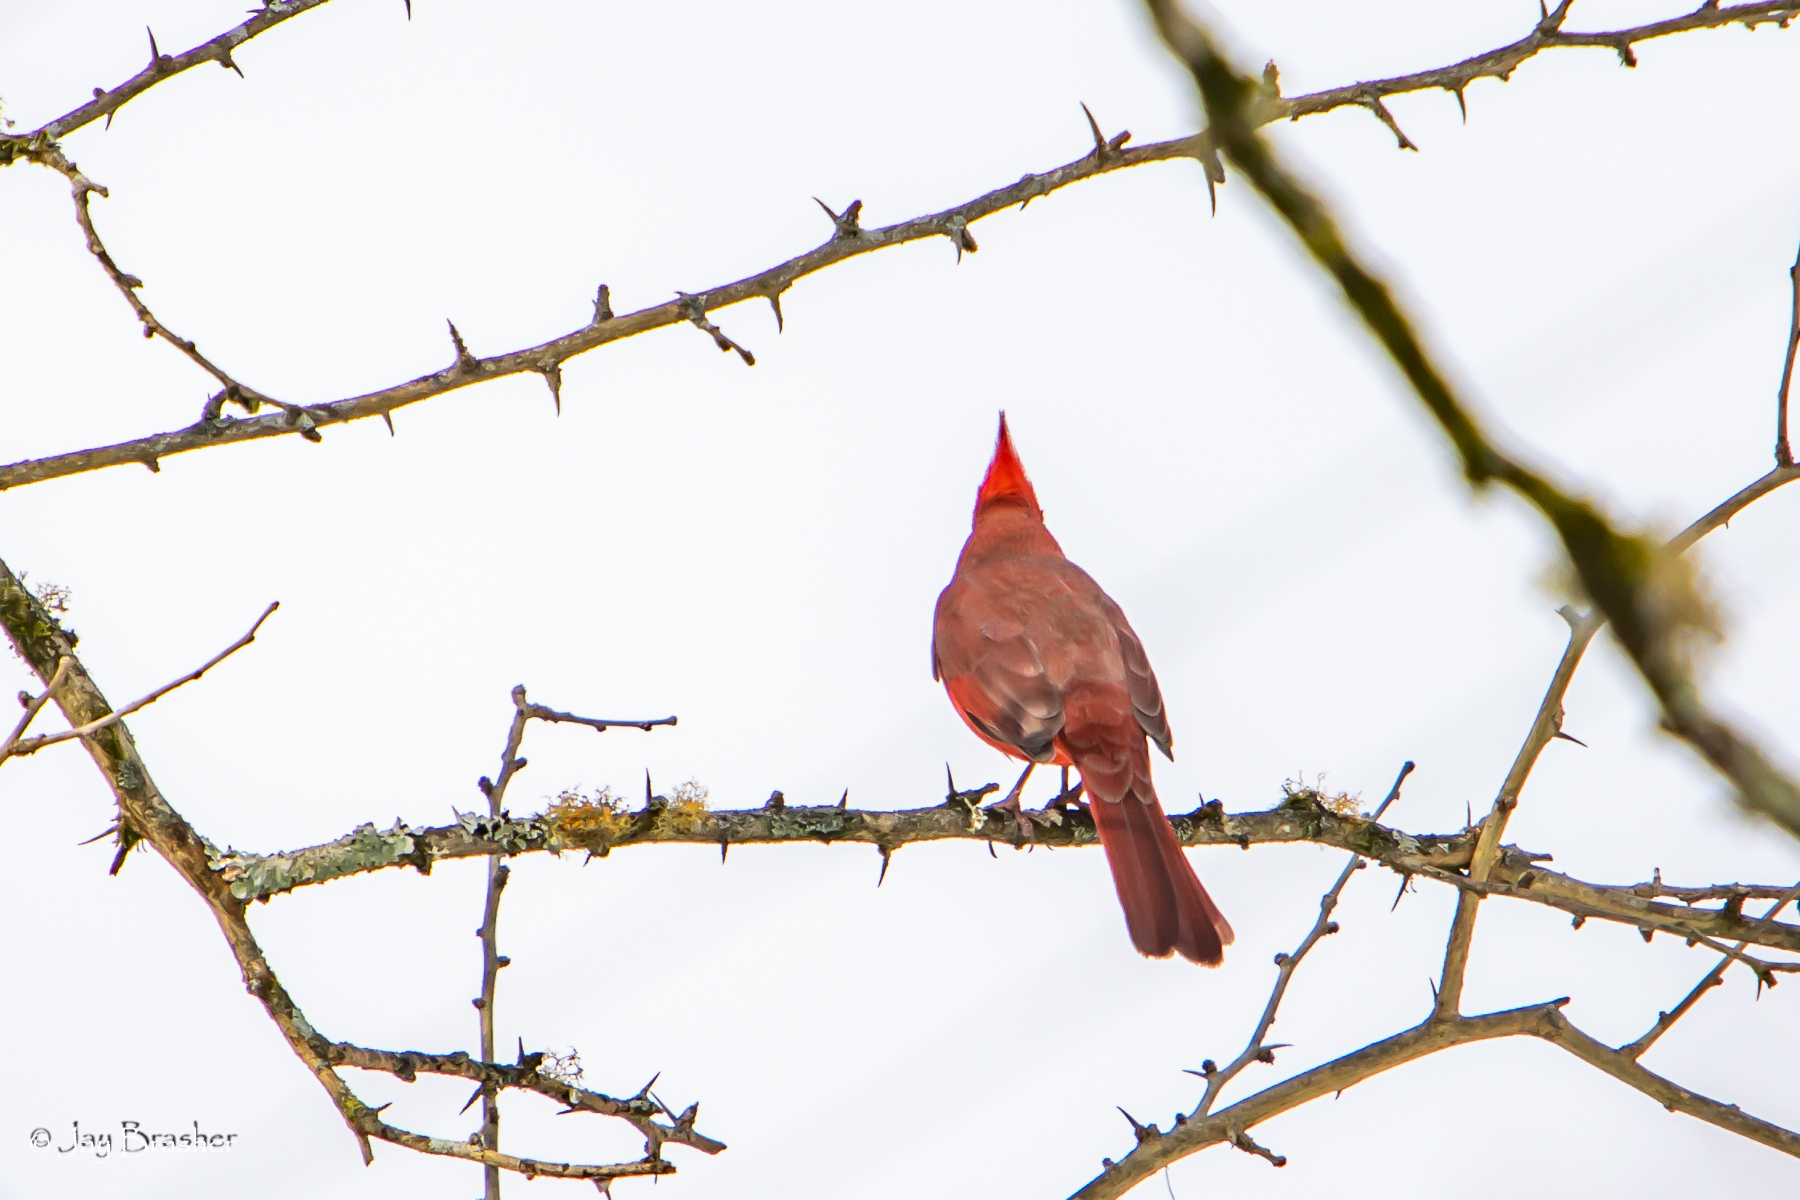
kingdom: Animalia
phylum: Chordata
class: Aves
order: Passeriformes
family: Cardinalidae
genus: Cardinalis
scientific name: Cardinalis cardinalis
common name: Northern cardinal
